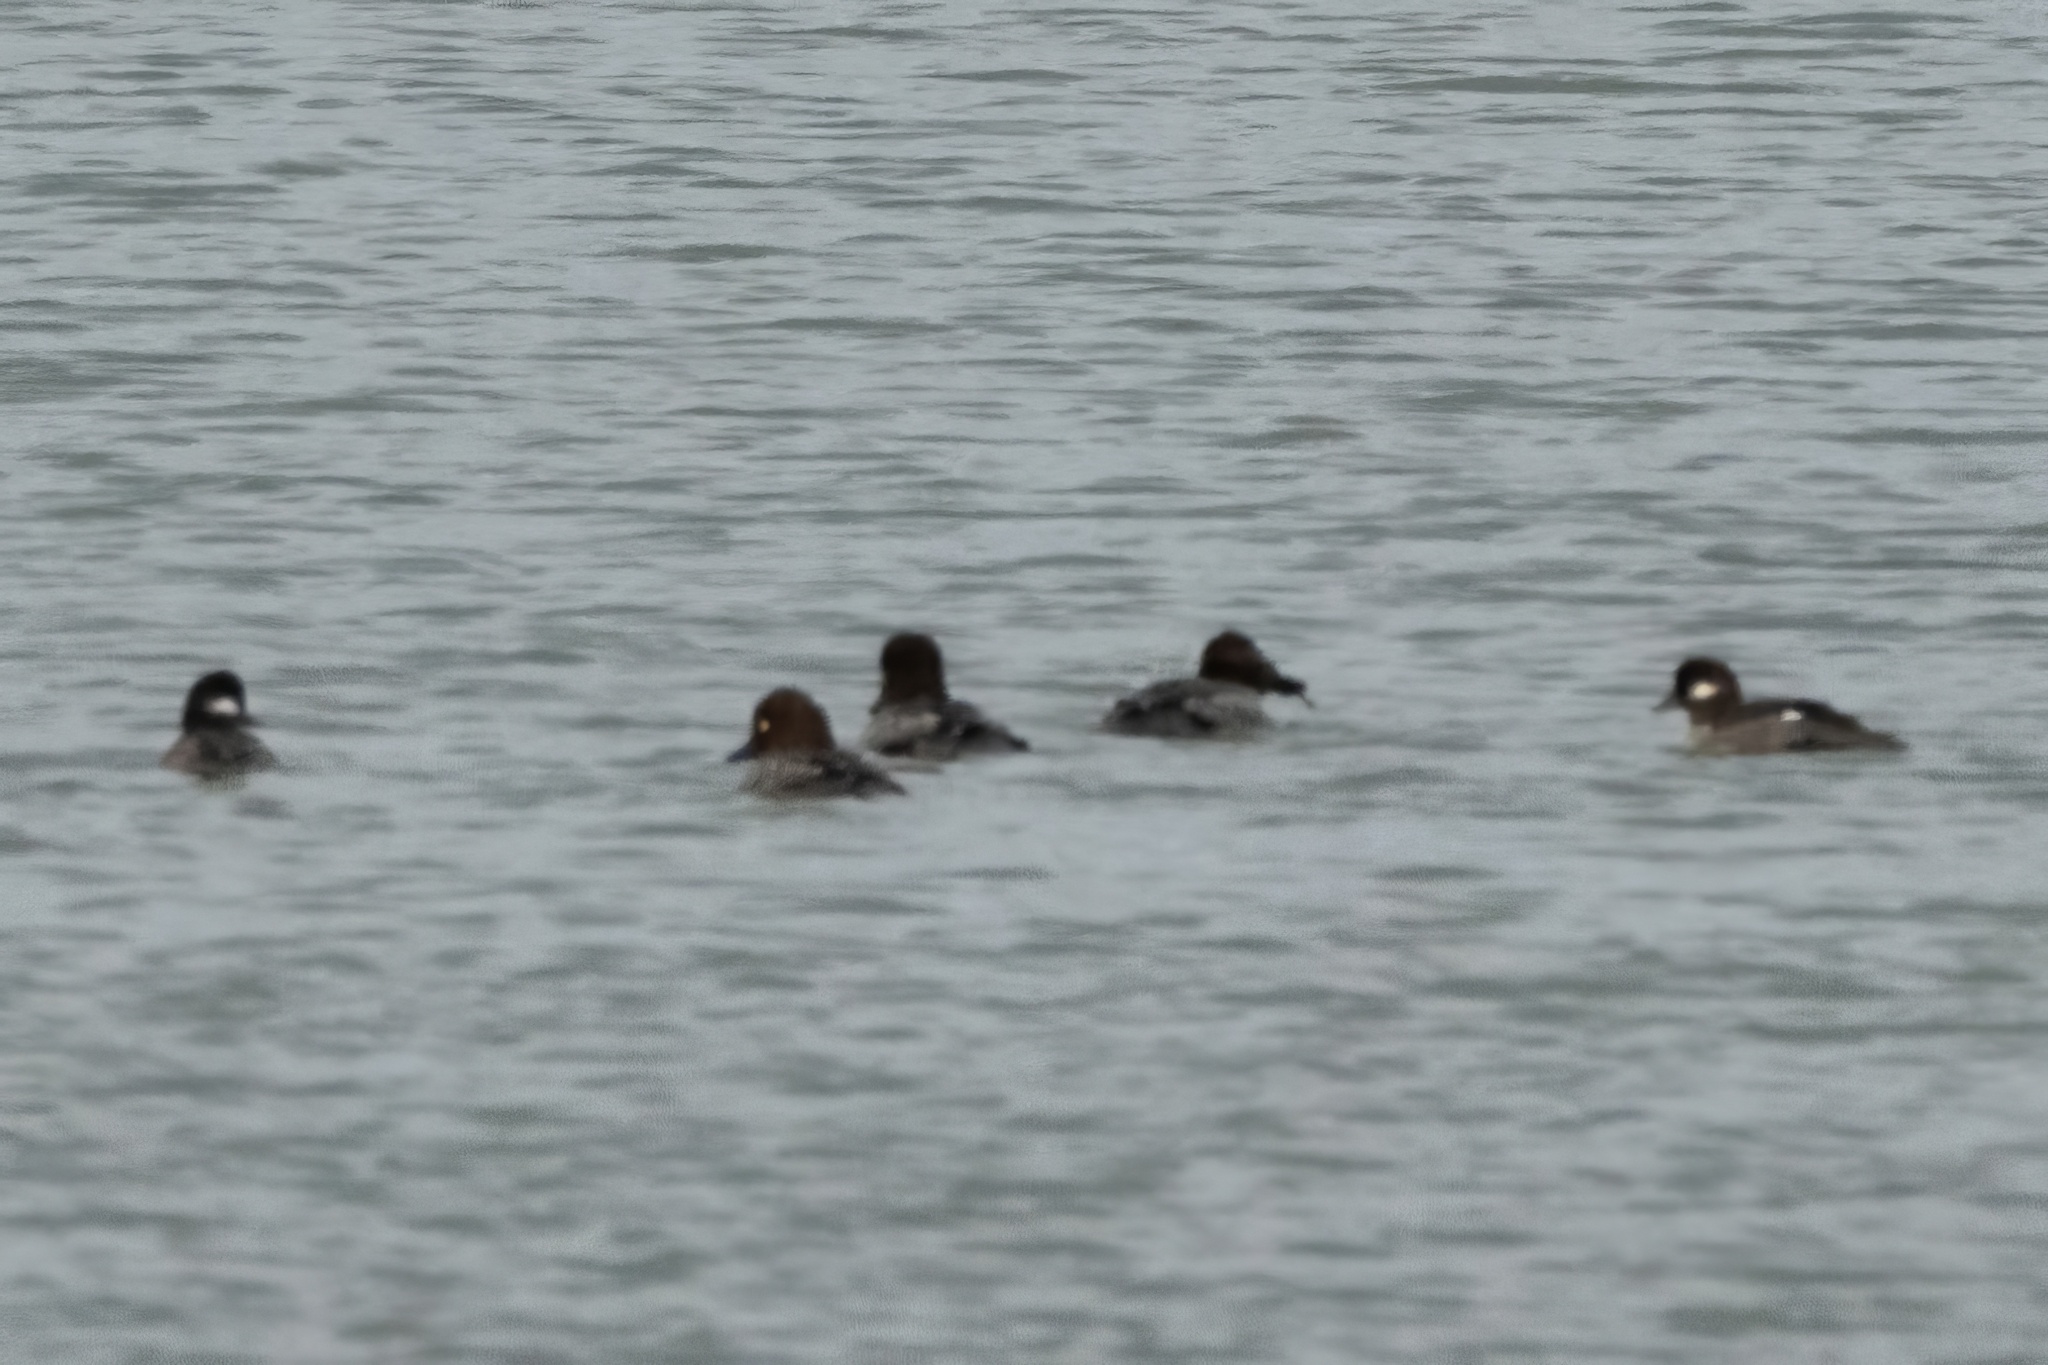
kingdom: Animalia
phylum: Chordata
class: Aves
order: Anseriformes
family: Anatidae
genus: Bucephala
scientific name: Bucephala clangula
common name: Common goldeneye
